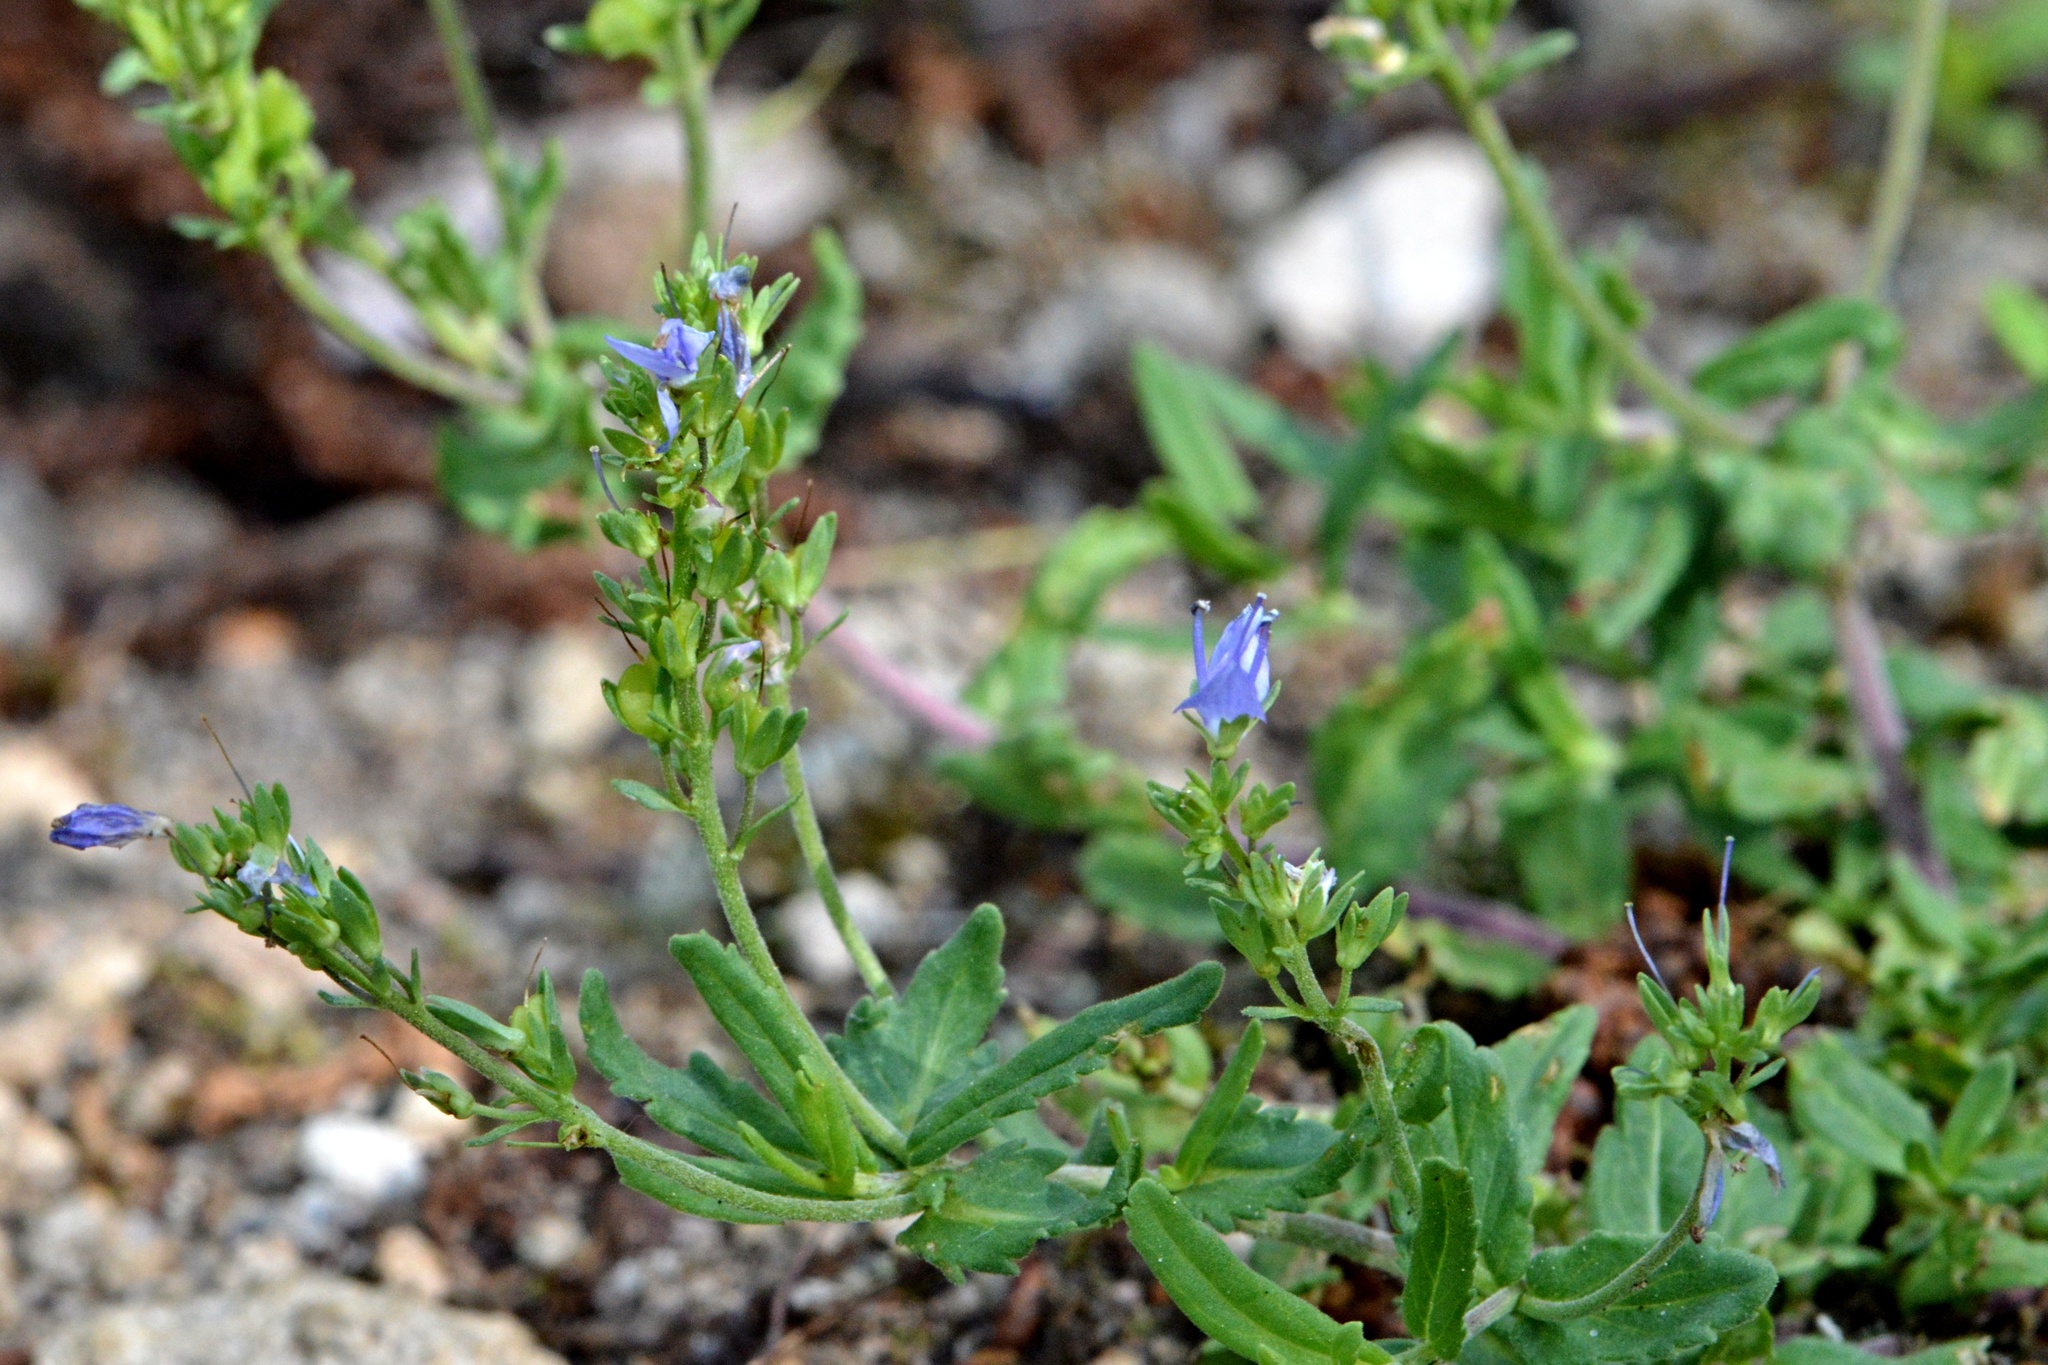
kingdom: Plantae
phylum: Tracheophyta
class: Magnoliopsida
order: Lamiales
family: Plantaginaceae
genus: Veronica
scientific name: Veronica prostrata
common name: Prostrate speedwell
